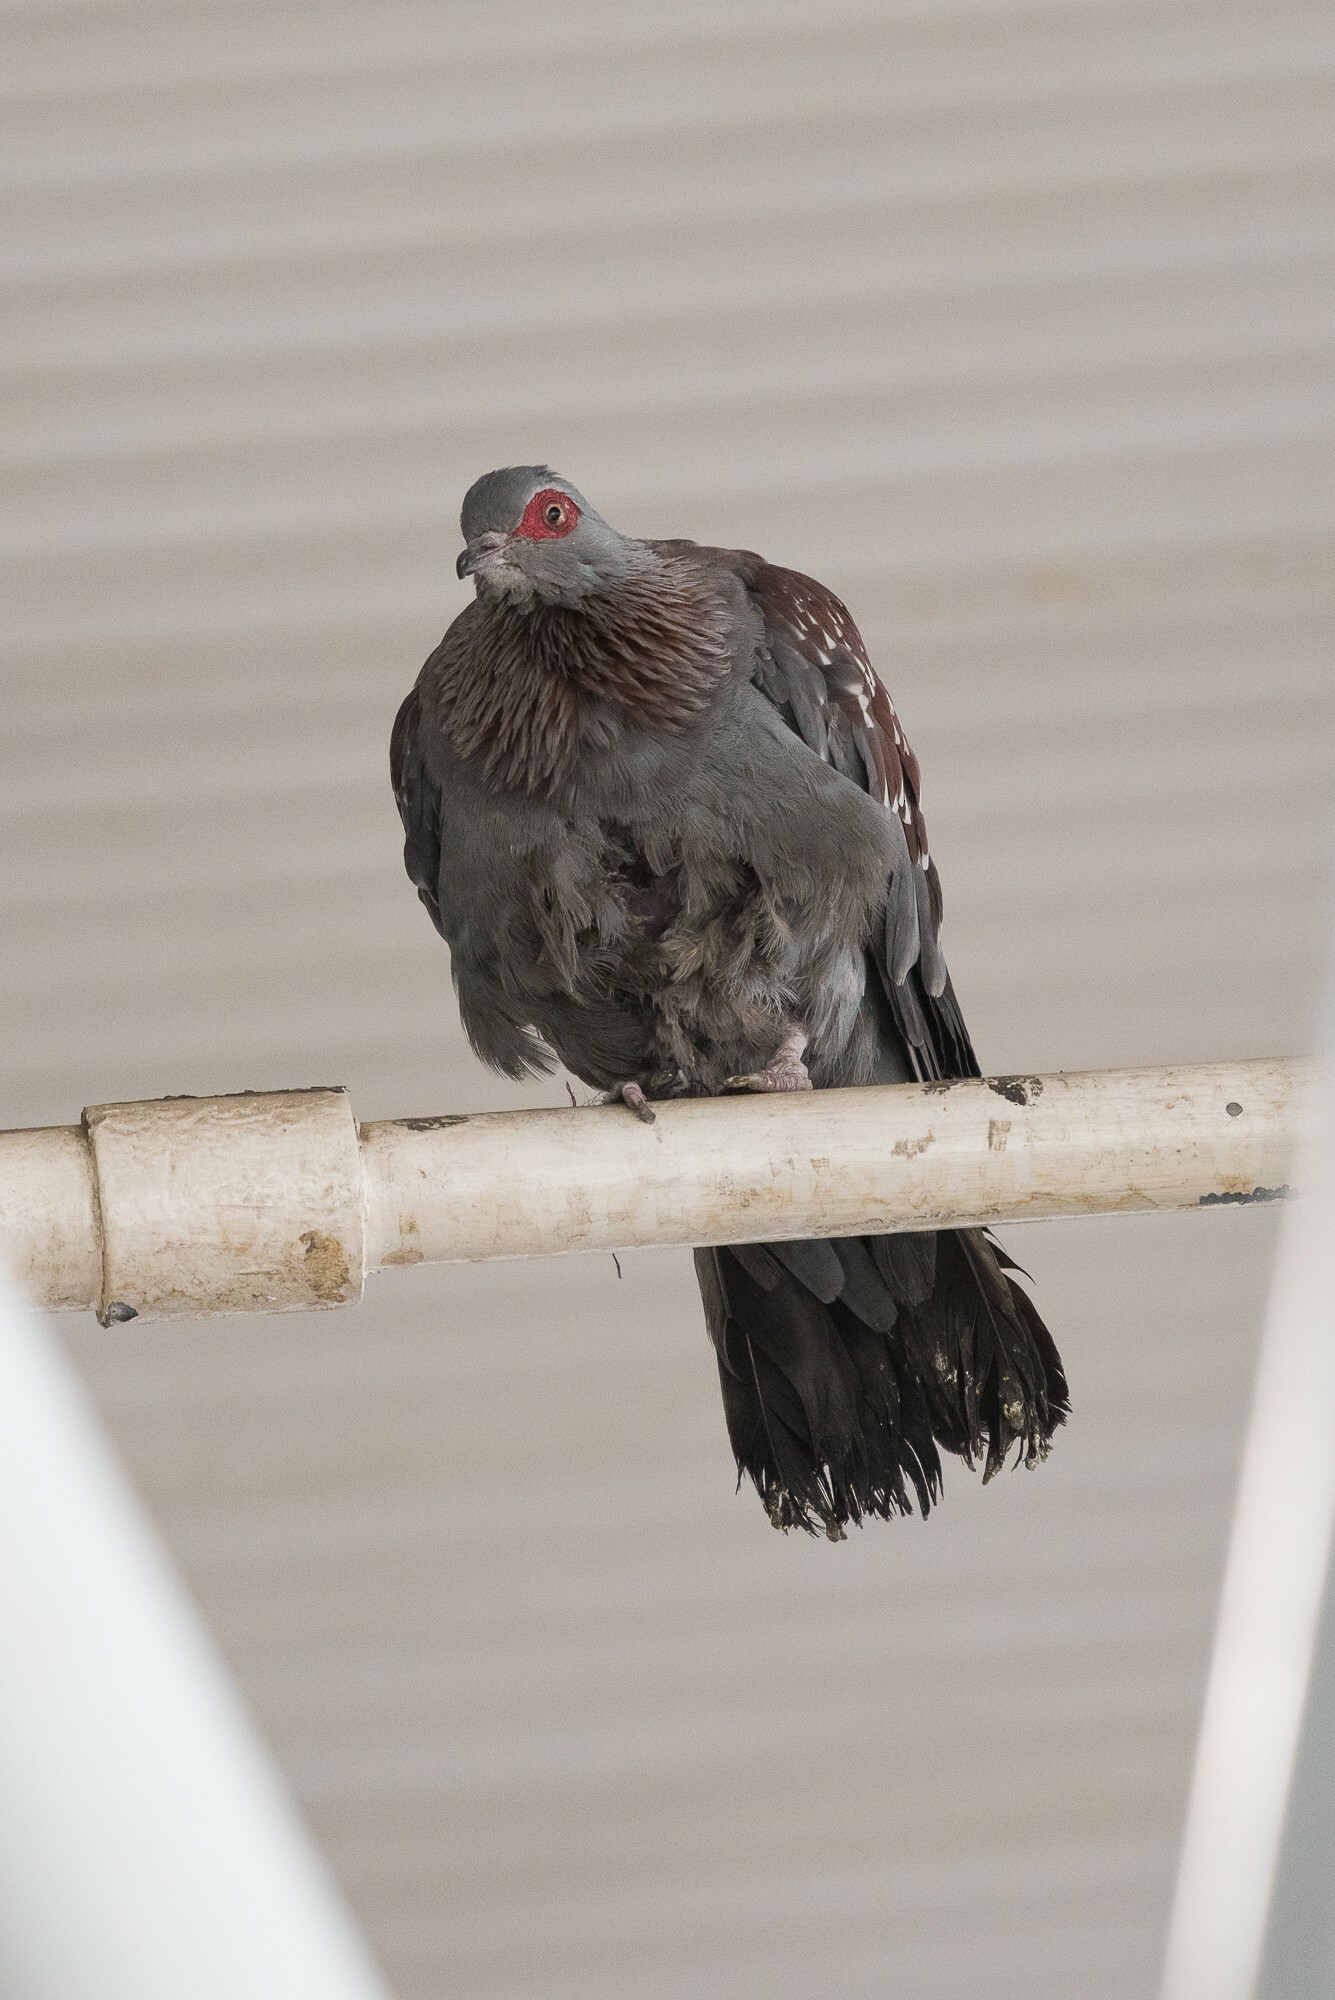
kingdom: Animalia
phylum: Chordata
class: Aves
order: Columbiformes
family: Columbidae
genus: Columba
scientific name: Columba guinea
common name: Speckled pigeon
